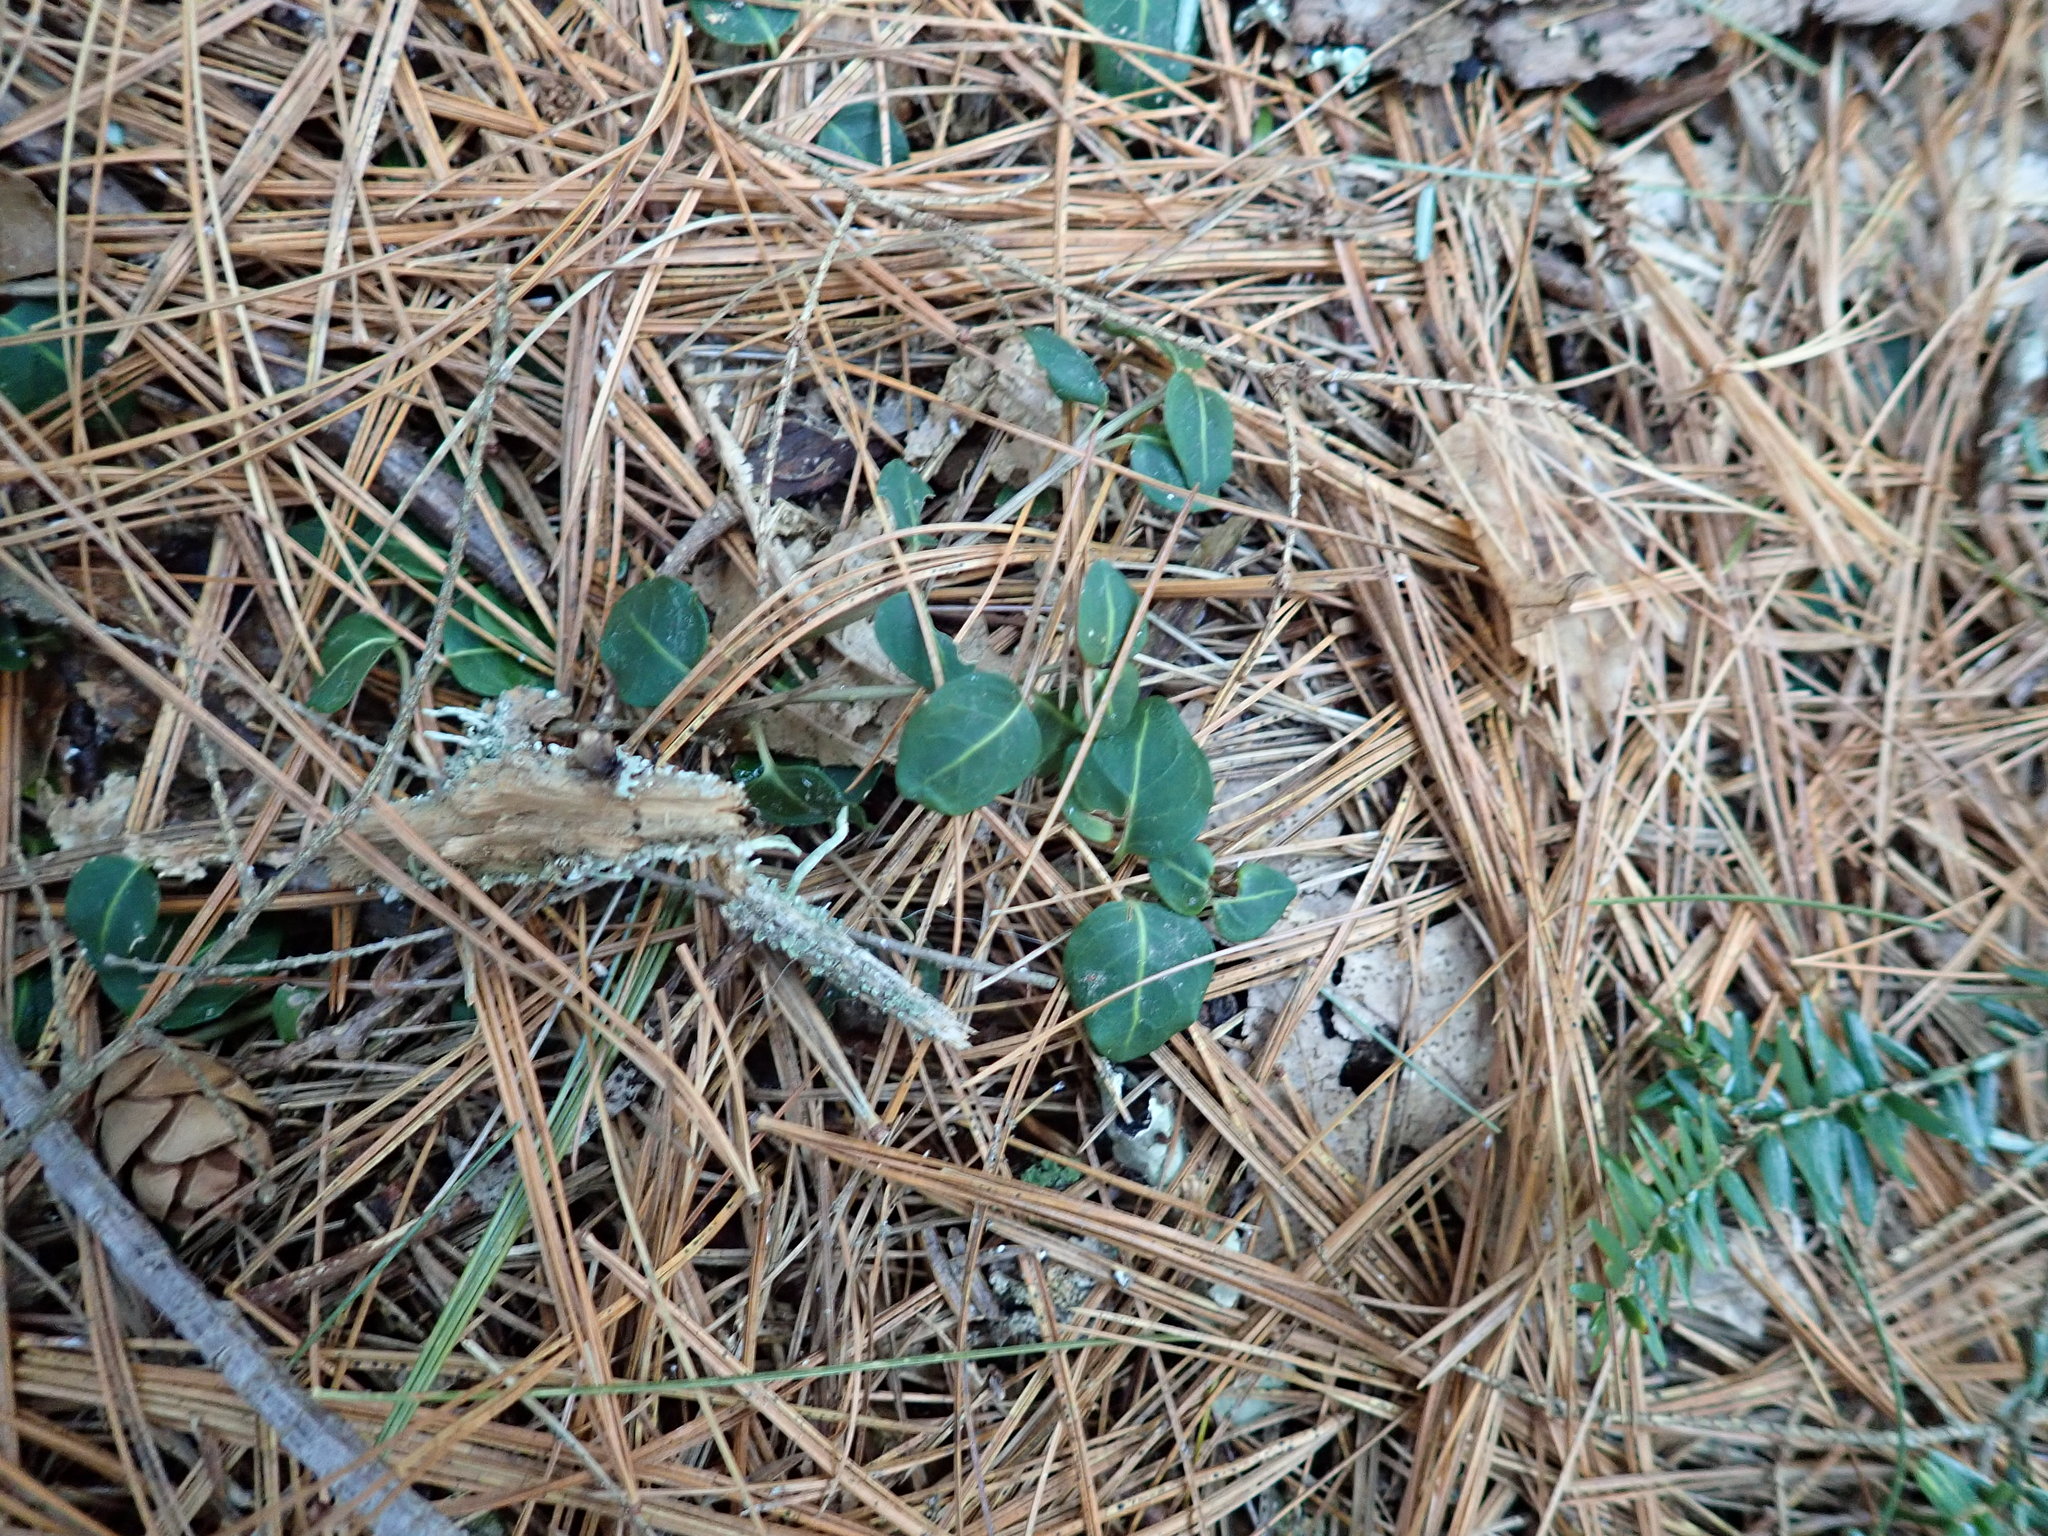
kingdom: Plantae
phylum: Tracheophyta
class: Magnoliopsida
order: Gentianales
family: Rubiaceae
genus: Mitchella
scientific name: Mitchella repens
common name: Partridge-berry
